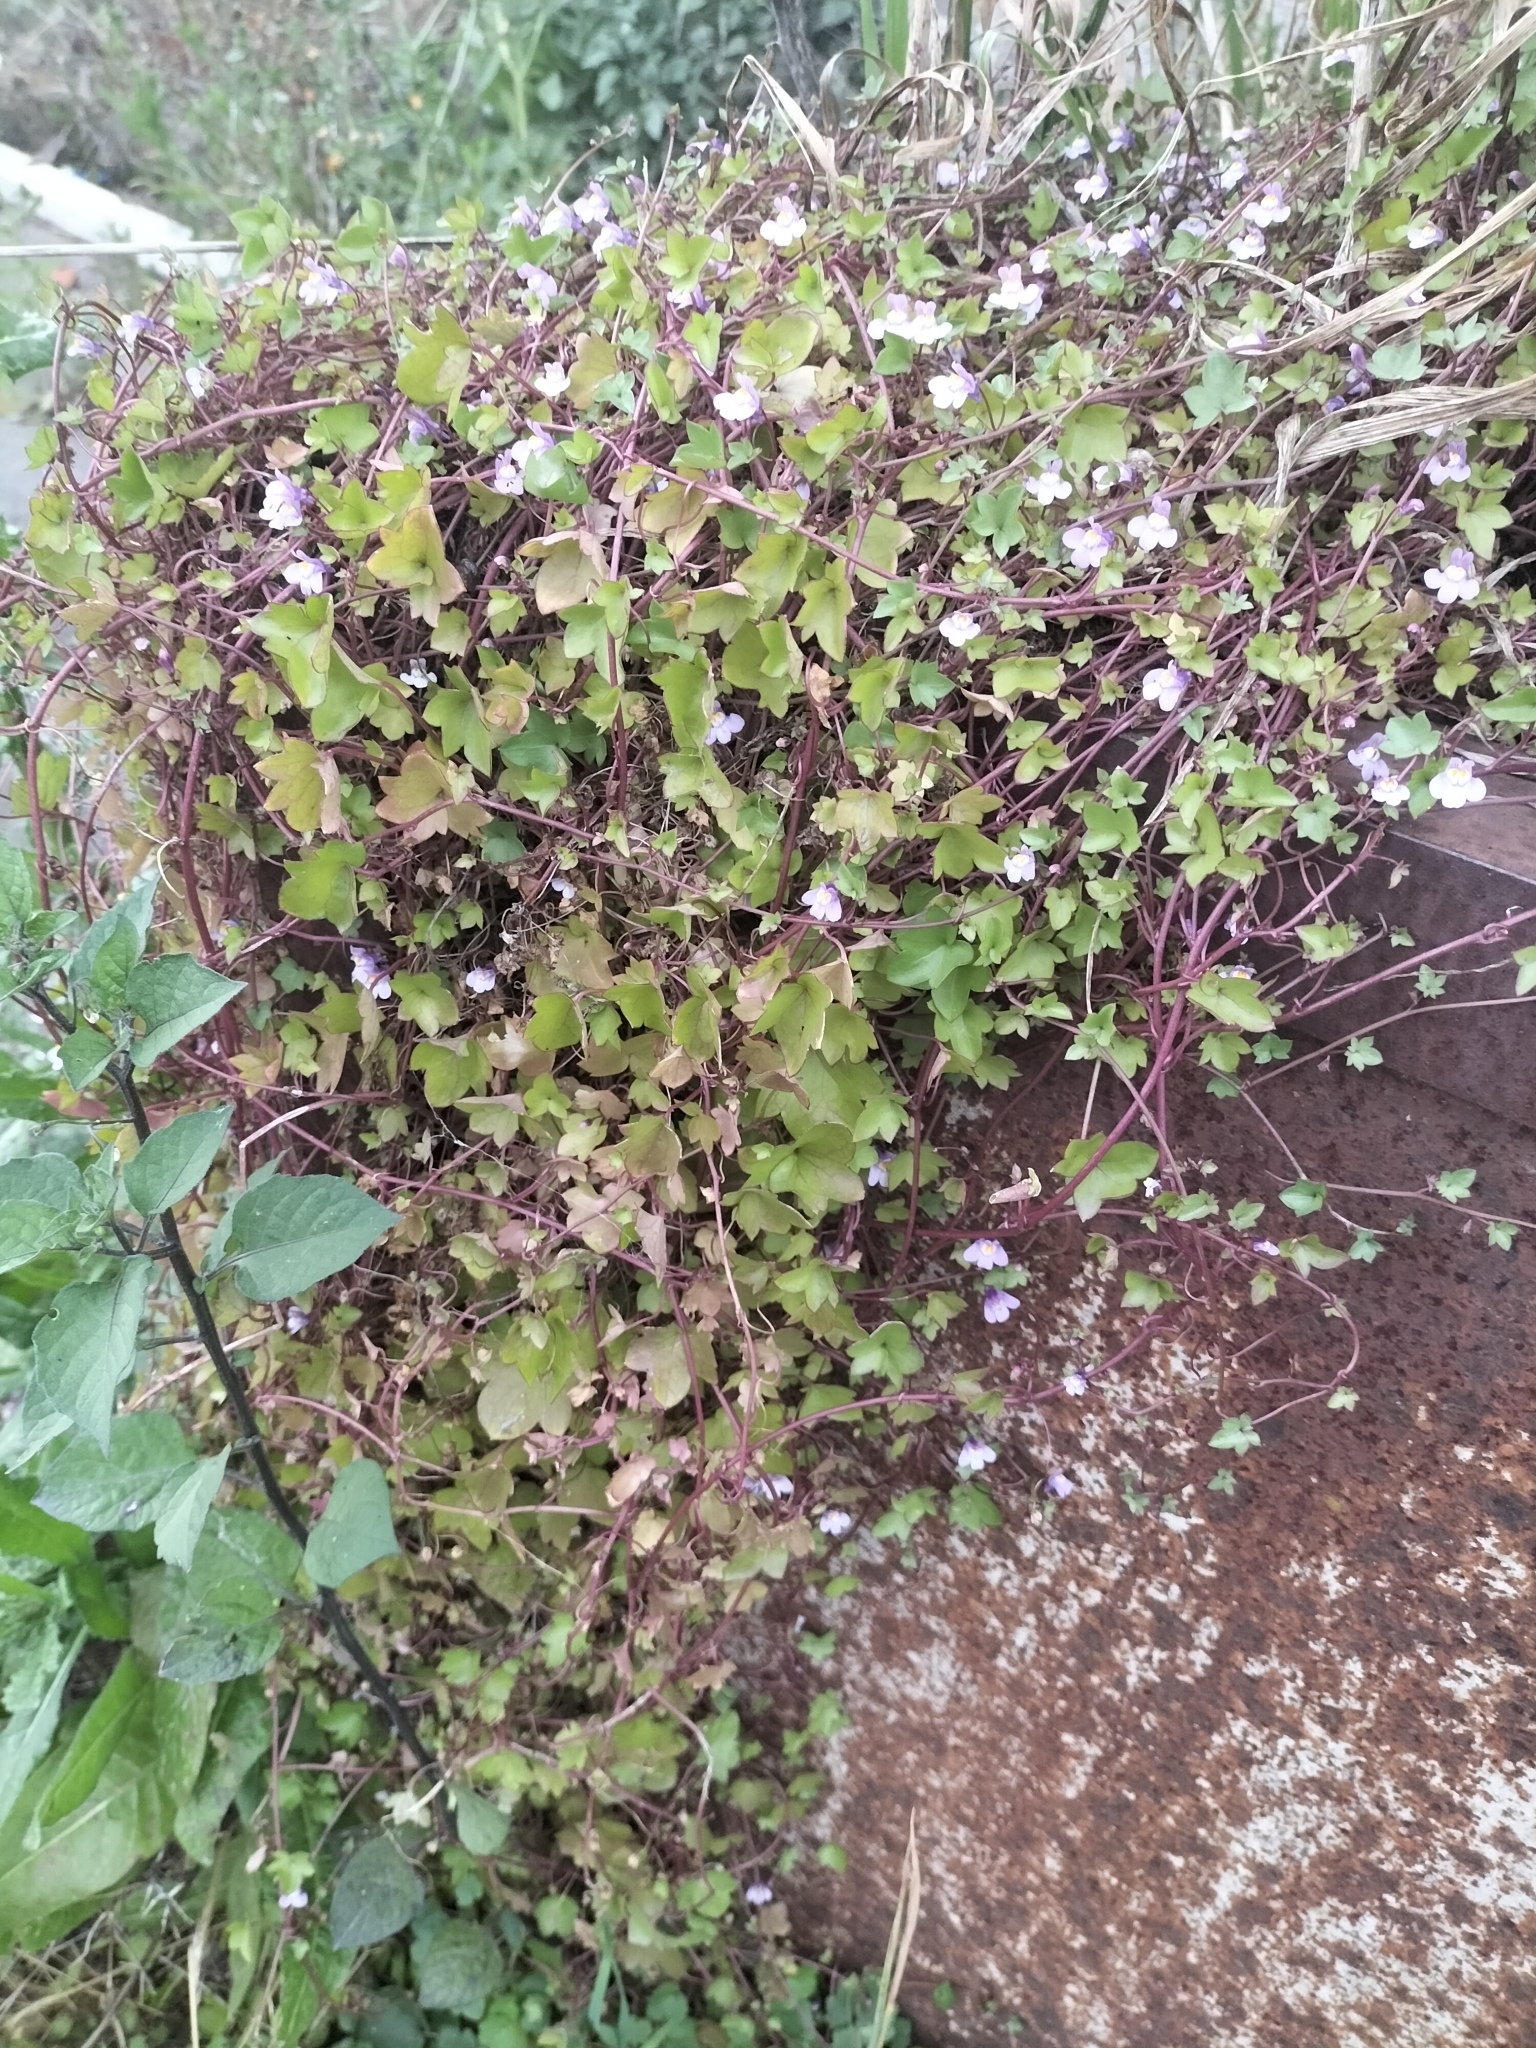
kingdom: Plantae
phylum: Tracheophyta
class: Magnoliopsida
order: Lamiales
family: Plantaginaceae
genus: Cymbalaria
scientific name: Cymbalaria muralis
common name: Ivy-leaved toadflax
